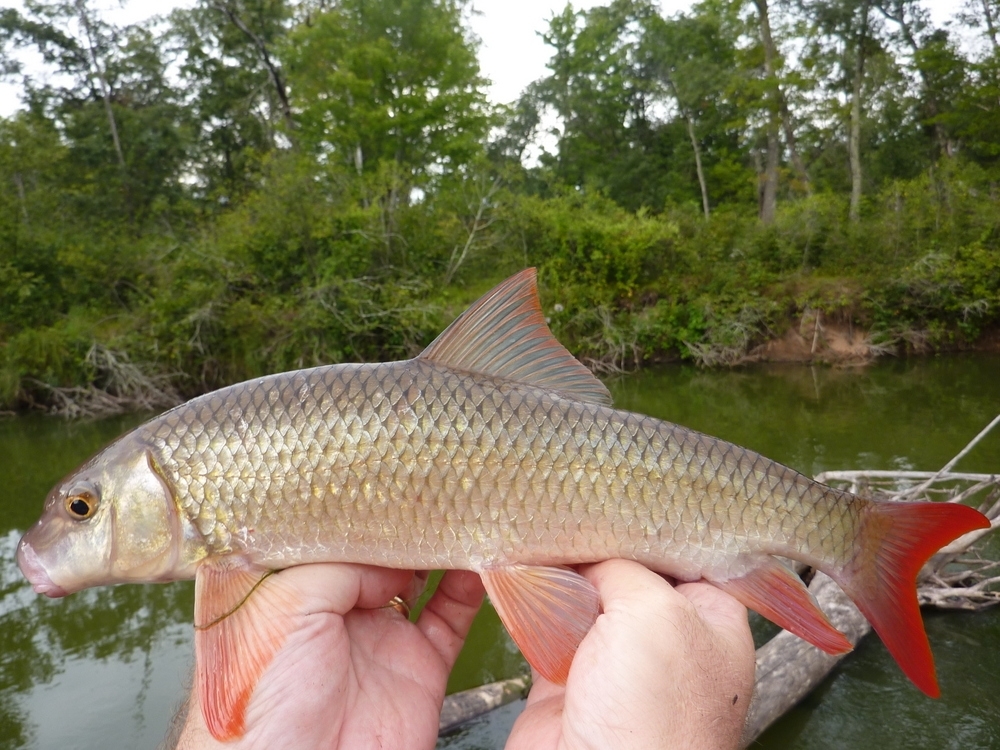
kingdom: Animalia
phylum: Chordata
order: Cypriniformes
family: Catostomidae
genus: Moxostoma
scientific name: Moxostoma macrolepidotum
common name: Shorthead redhorse
